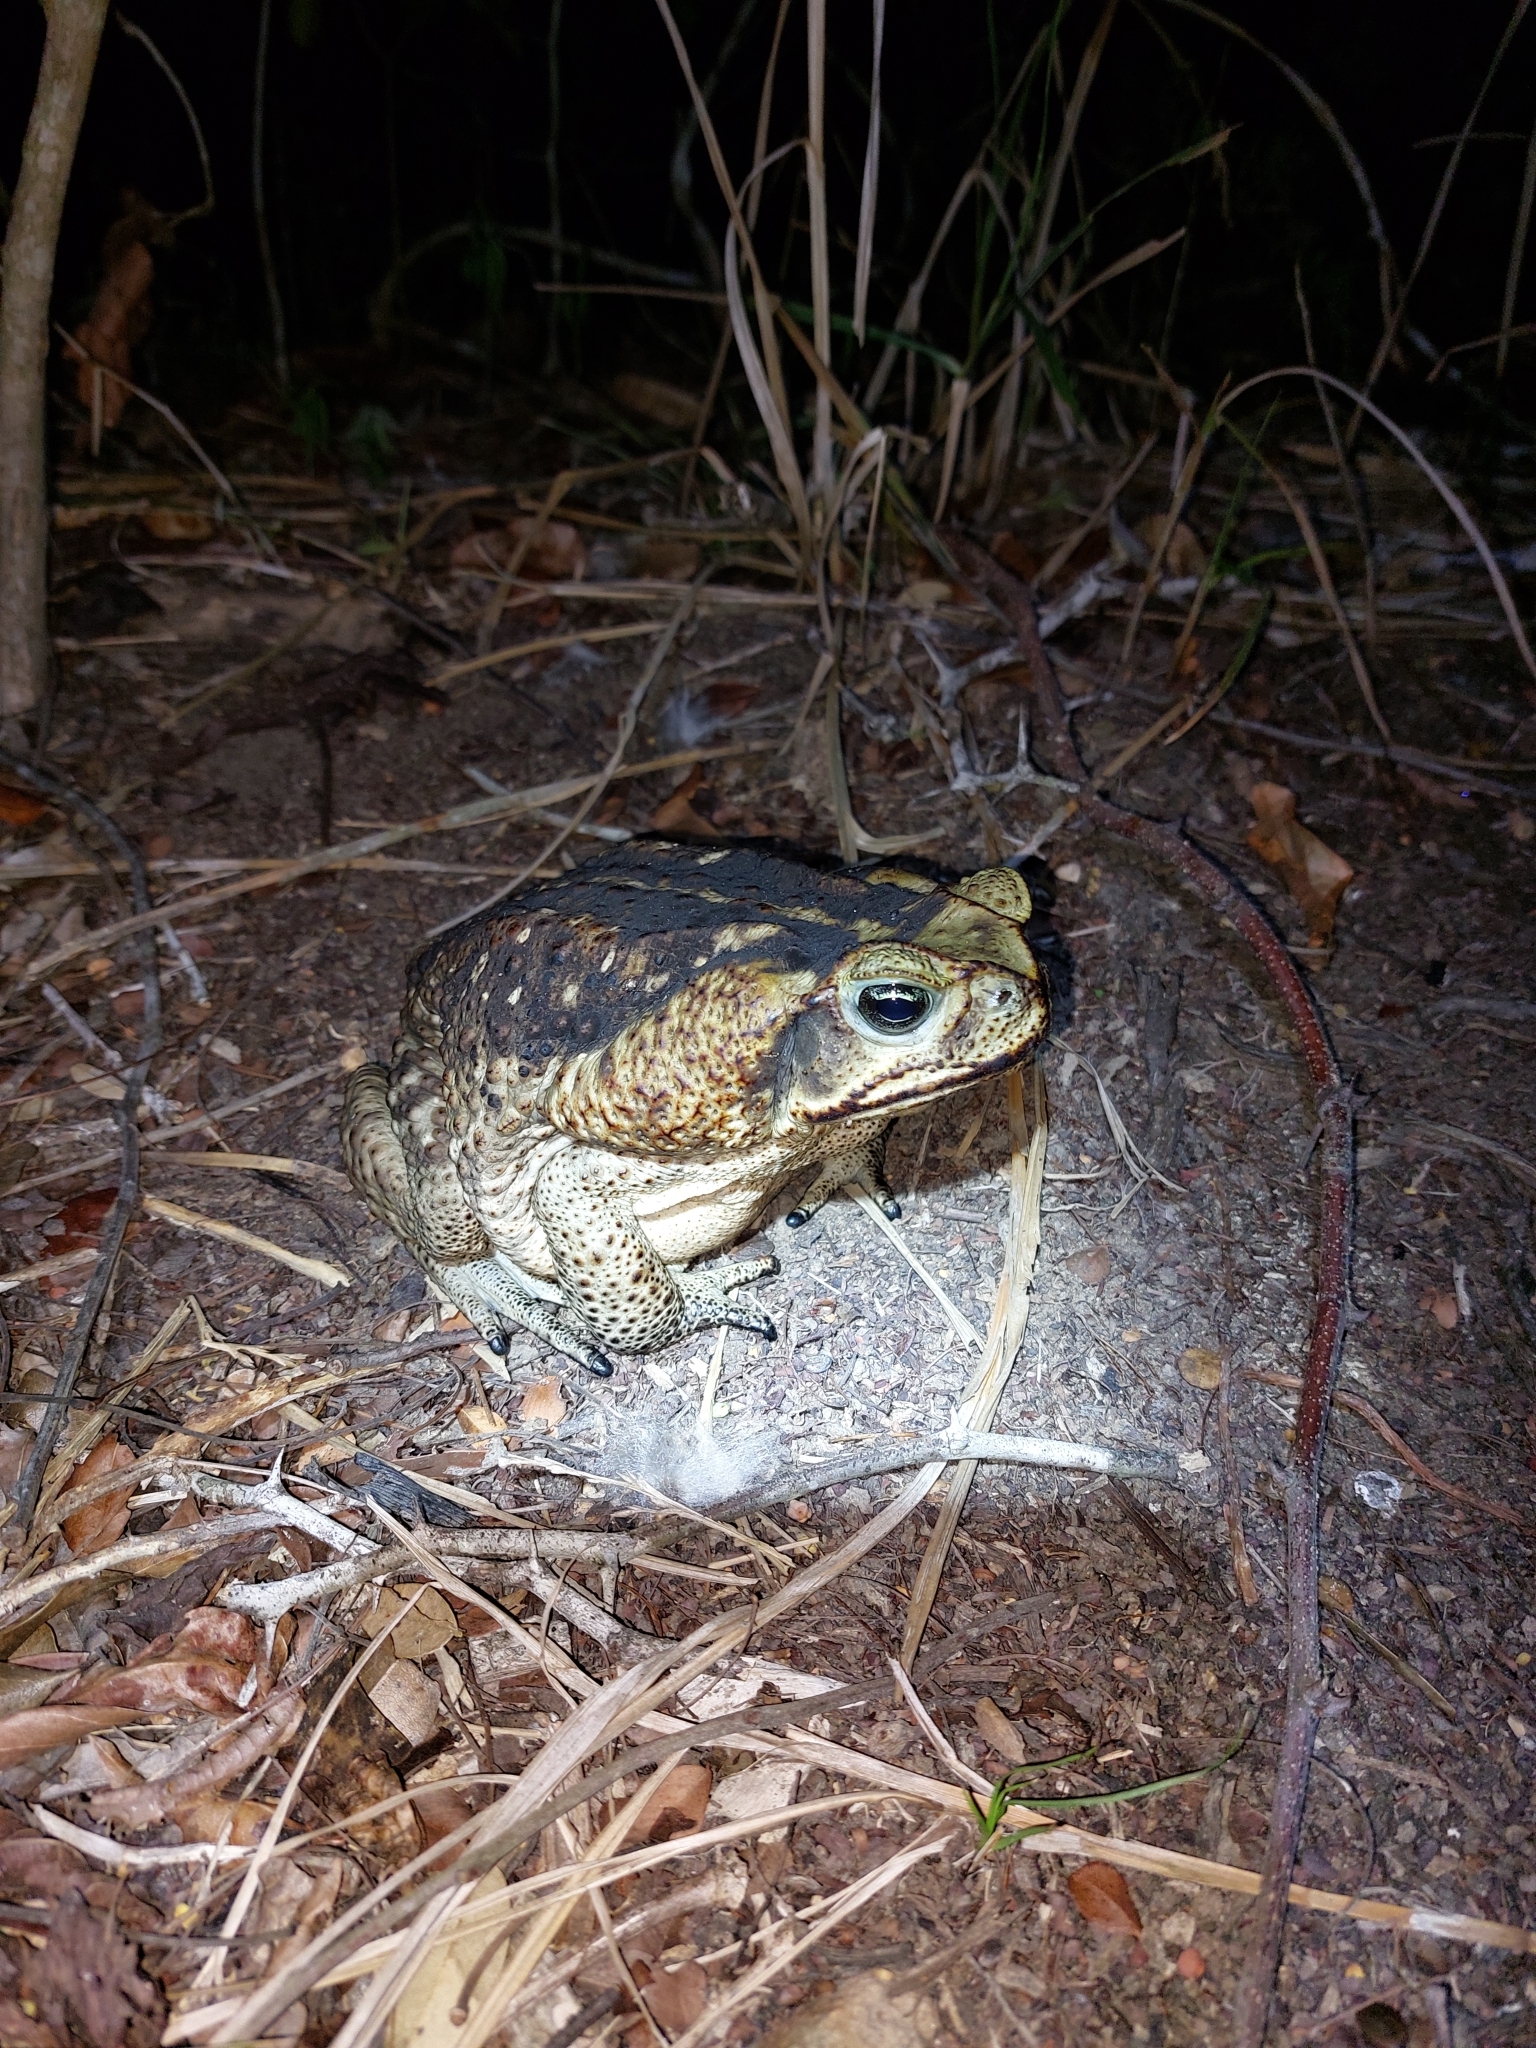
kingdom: Animalia
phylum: Chordata
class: Amphibia
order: Anura
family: Bufonidae
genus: Rhinella
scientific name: Rhinella horribilis
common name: Mesoamerican cane toad
